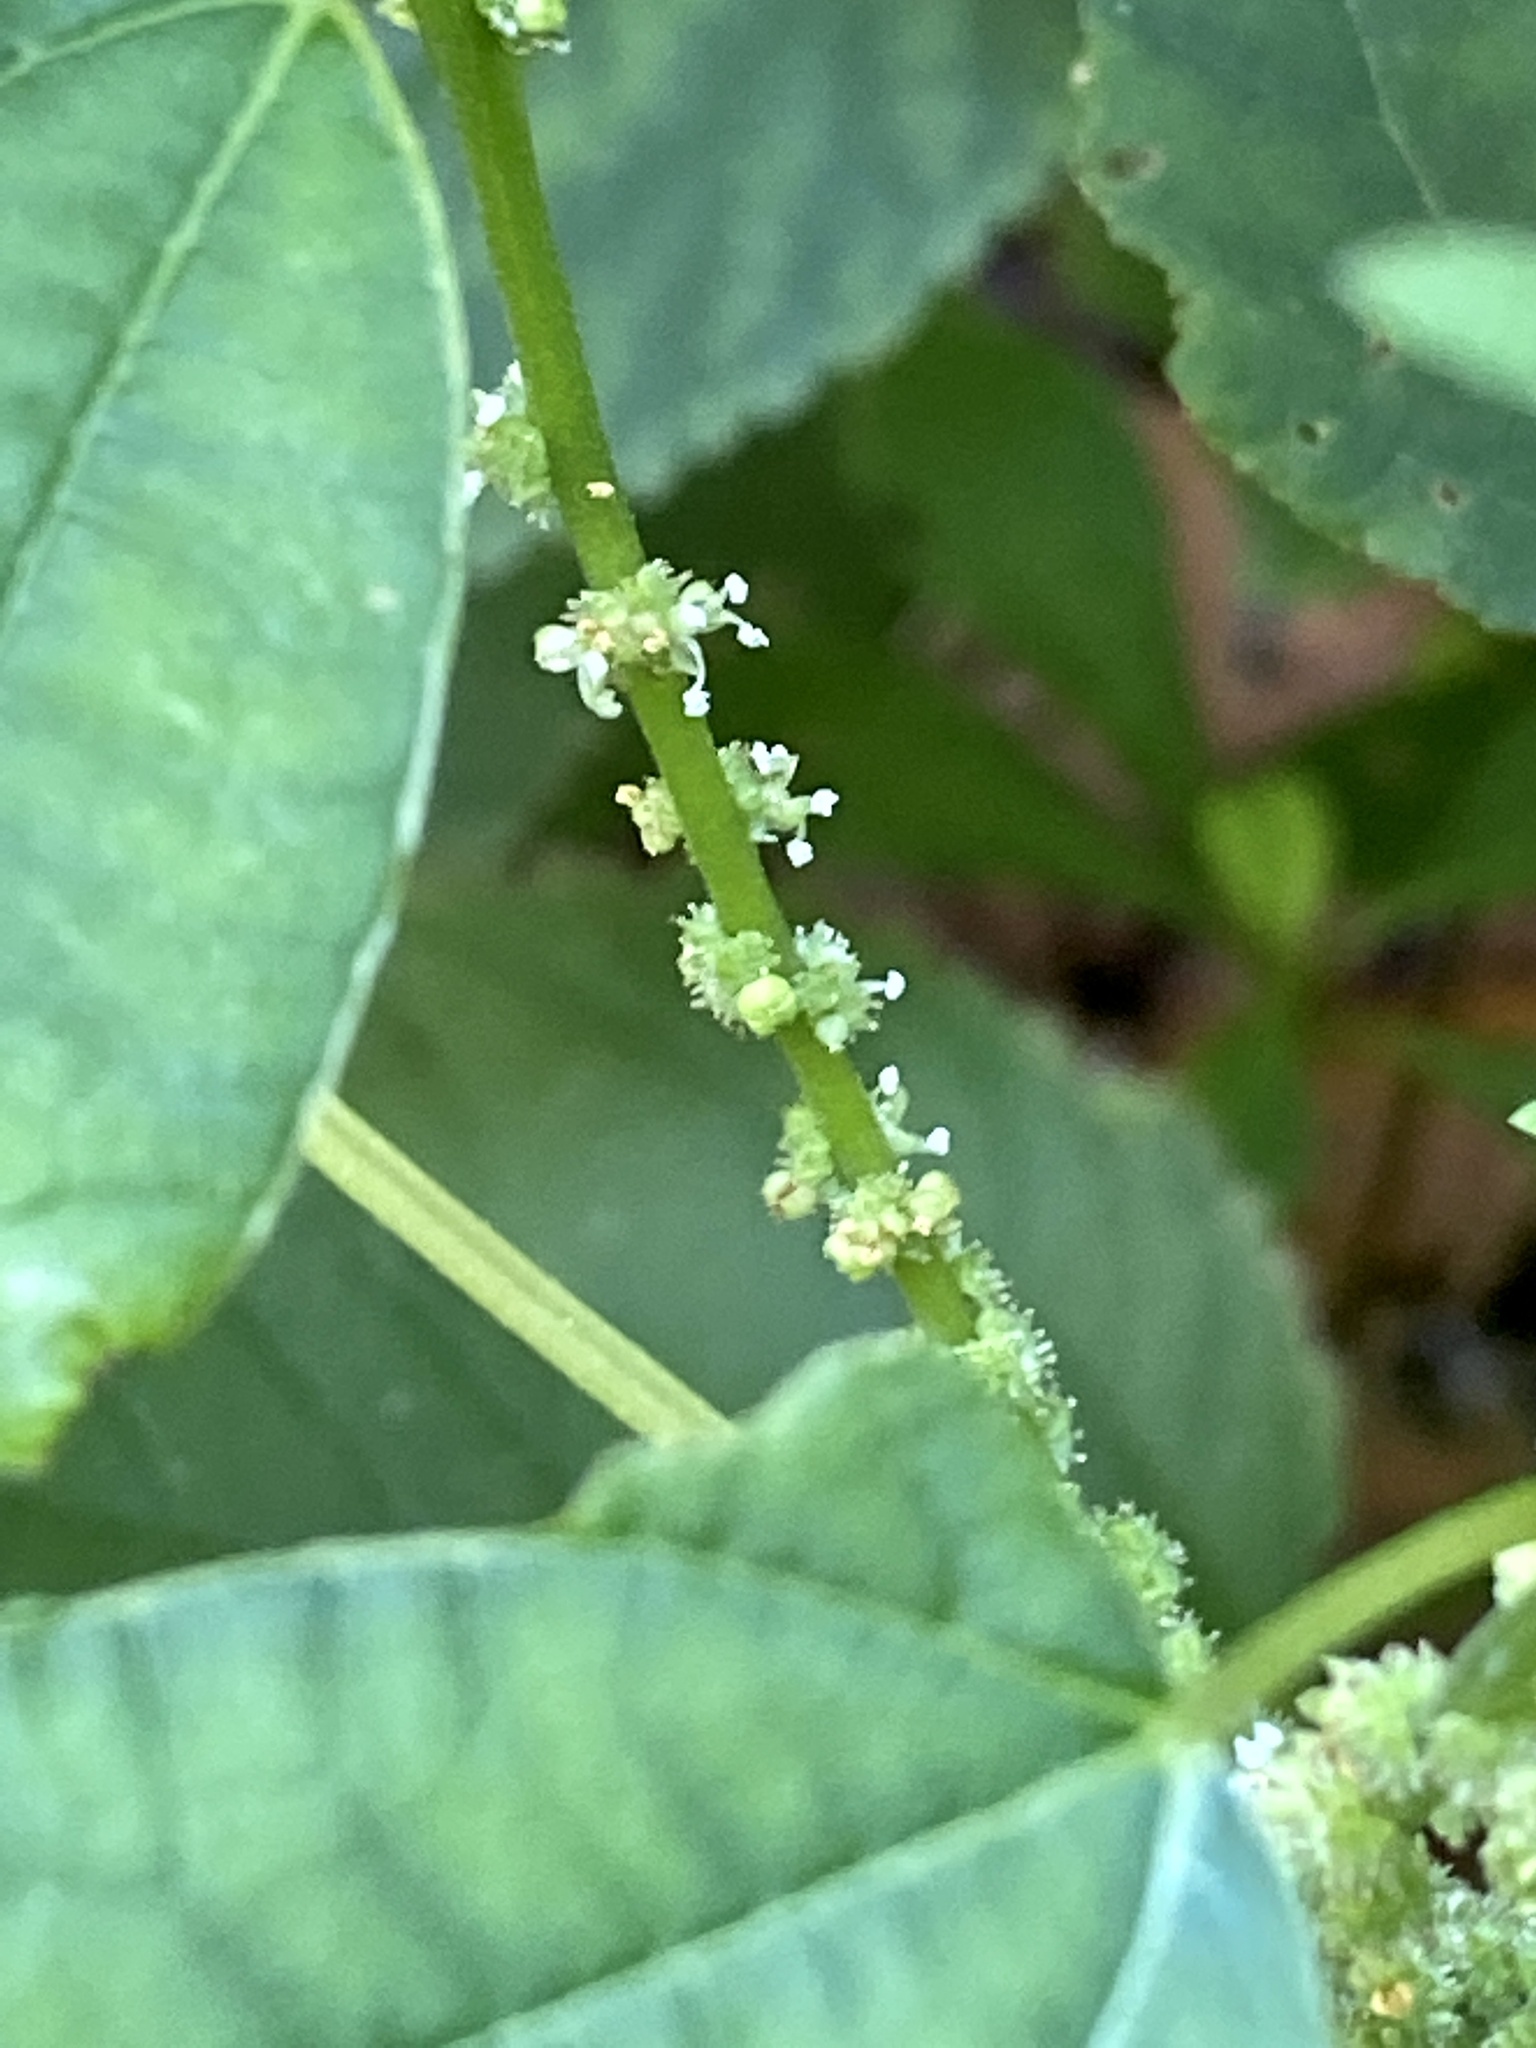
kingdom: Plantae
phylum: Tracheophyta
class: Magnoliopsida
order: Rosales
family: Urticaceae
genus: Boehmeria
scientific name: Boehmeria cylindrica
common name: Bog-hemp
